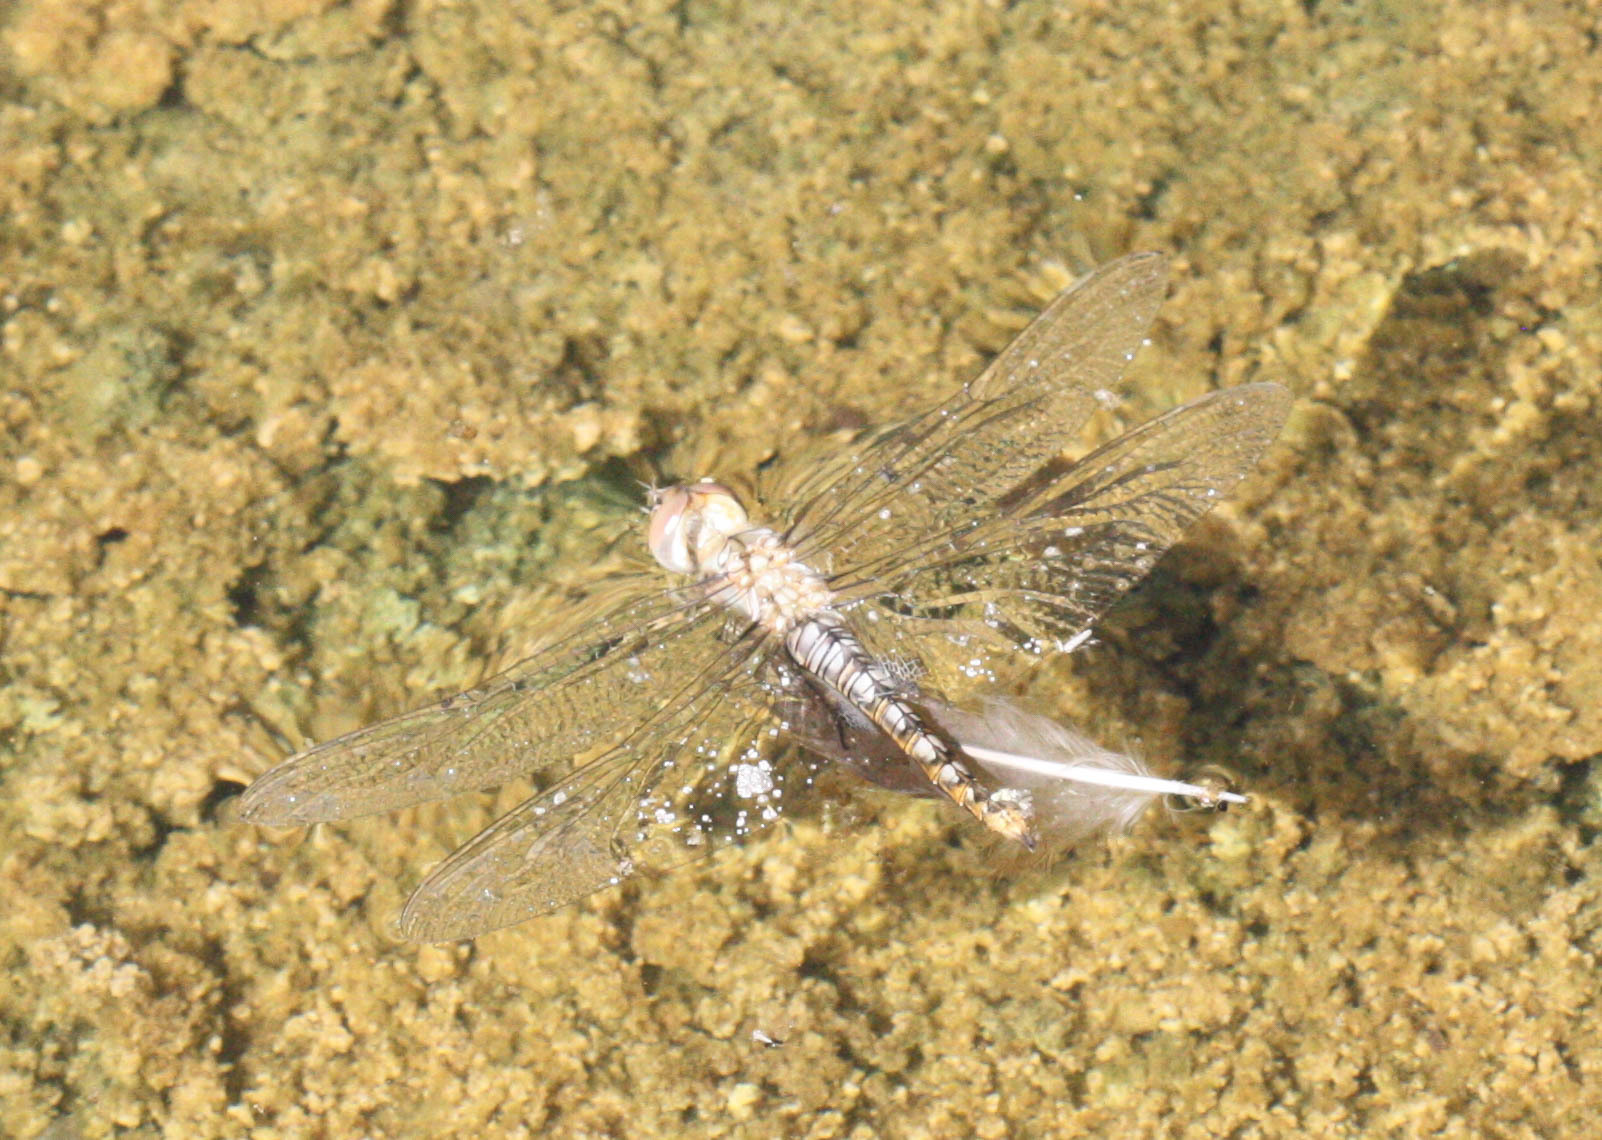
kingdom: Animalia
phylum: Arthropoda
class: Insecta
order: Odonata
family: Libellulidae
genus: Pantala
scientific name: Pantala hymenaea
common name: Spot-winged glider
